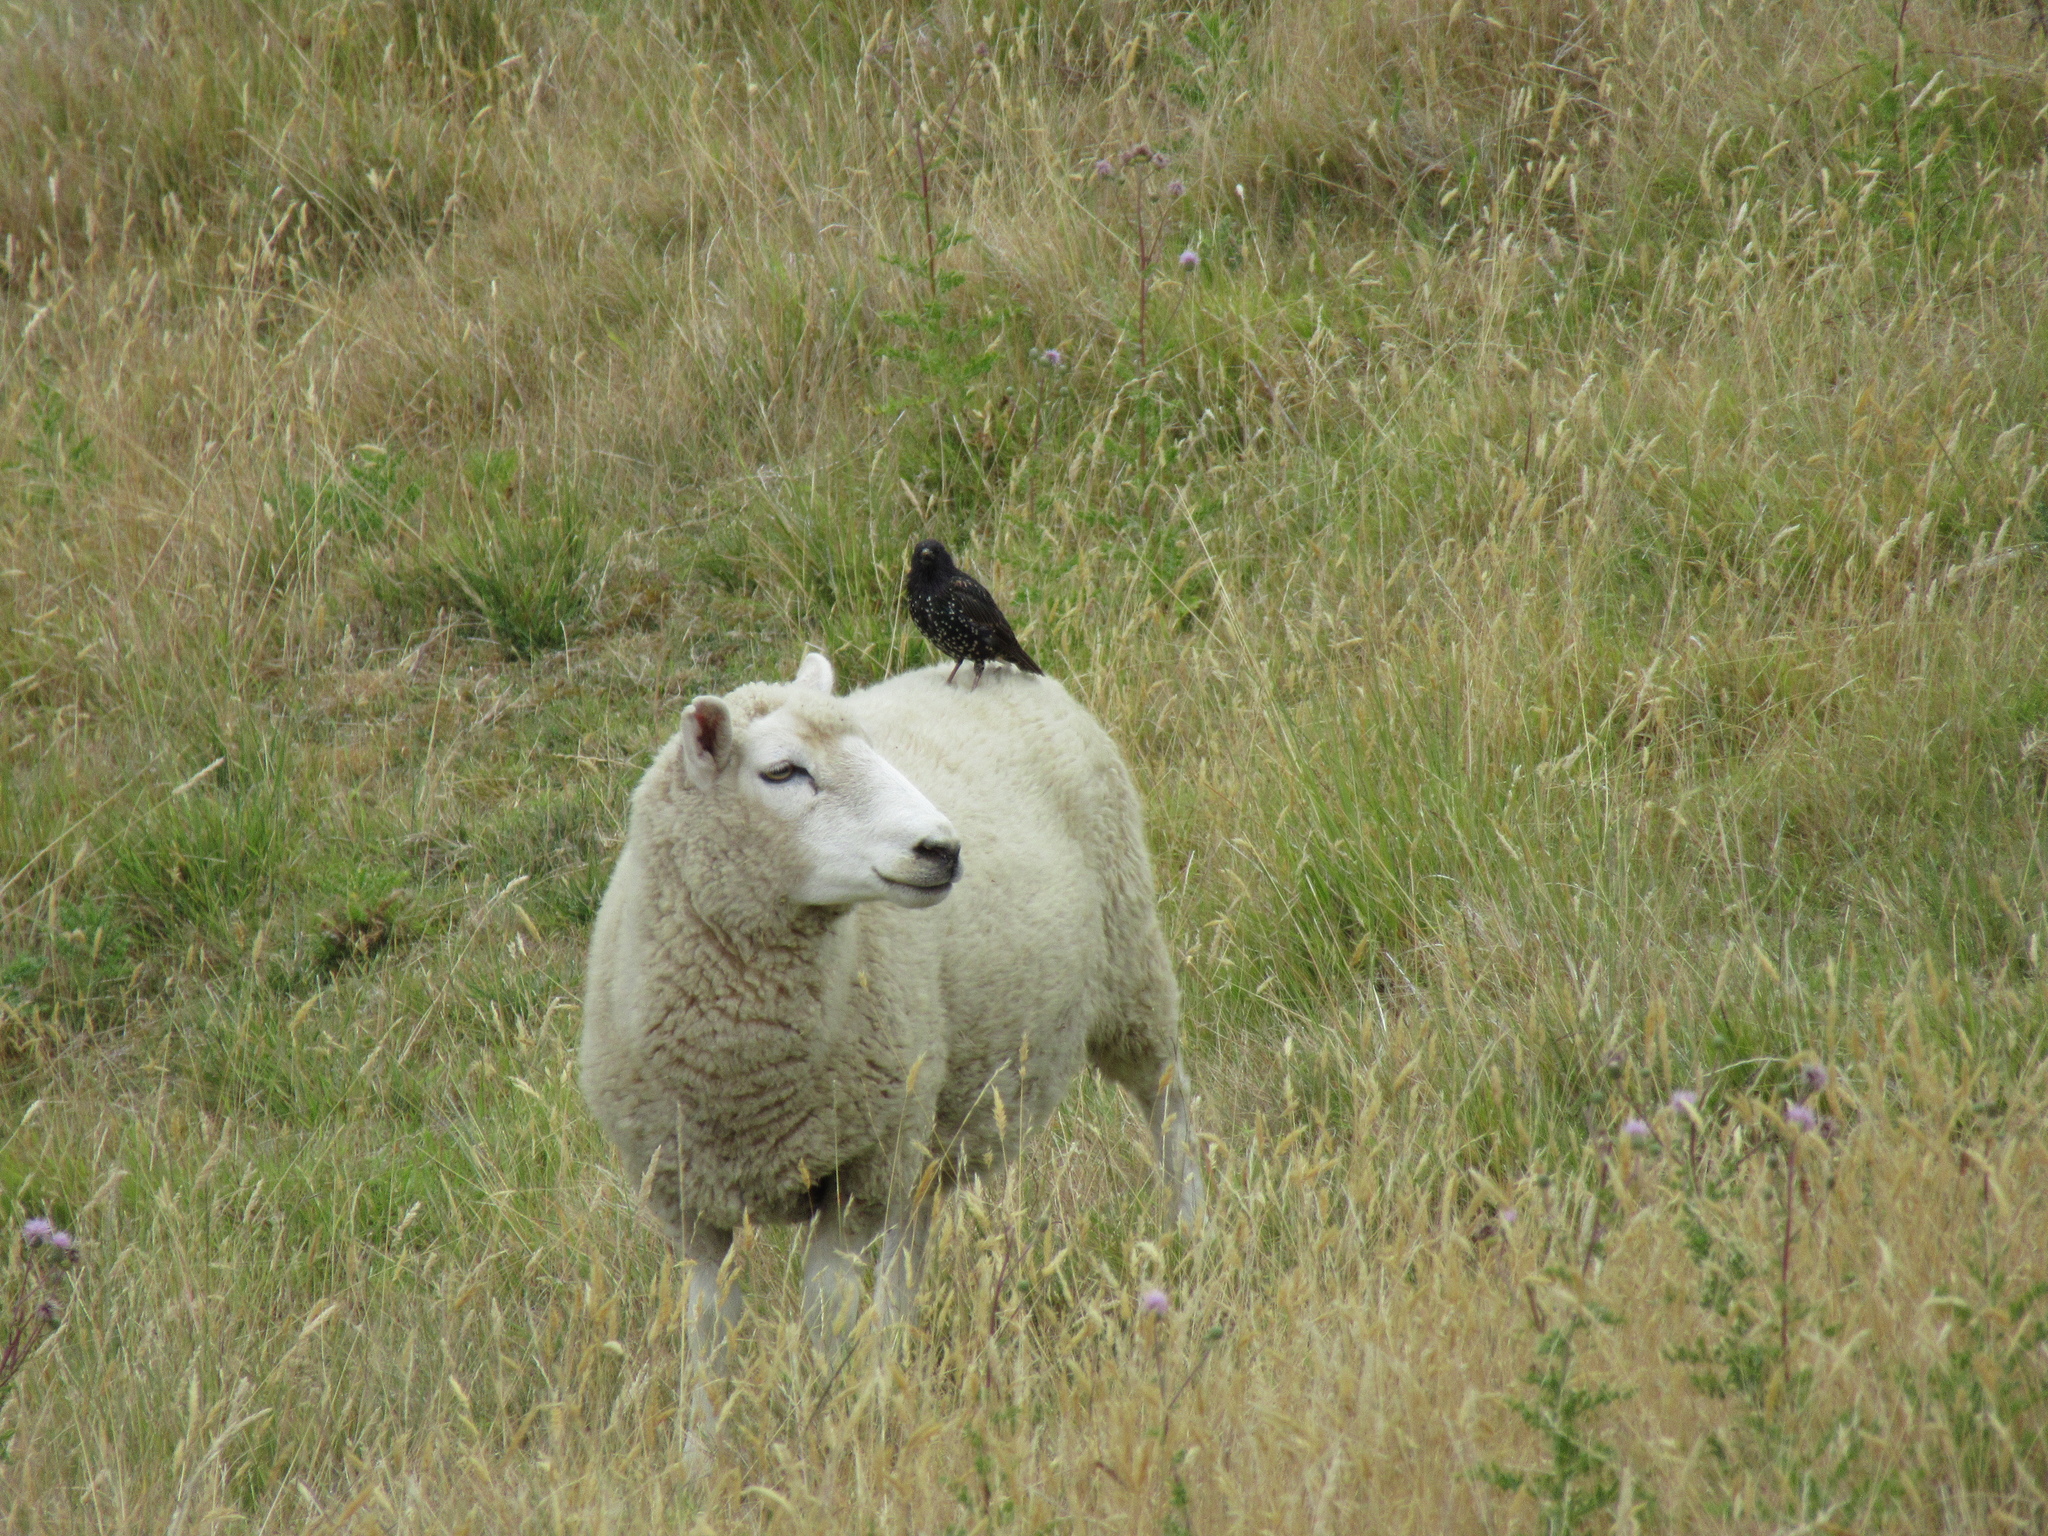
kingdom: Animalia
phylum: Chordata
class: Aves
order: Passeriformes
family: Sturnidae
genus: Sturnus
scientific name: Sturnus vulgaris
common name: Common starling
